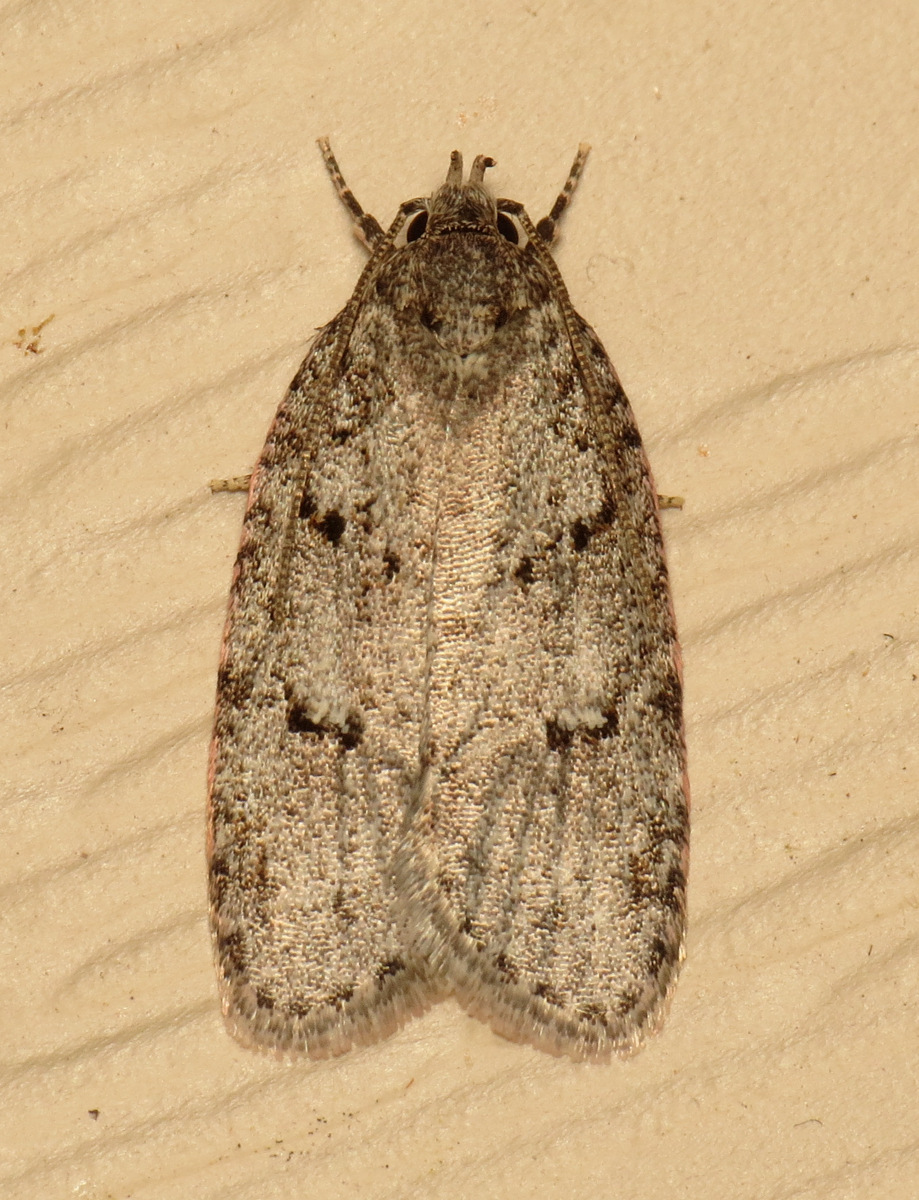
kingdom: Animalia
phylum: Arthropoda
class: Insecta
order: Lepidoptera
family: Depressariidae
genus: Bibarrambla
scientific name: Bibarrambla allenella
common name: Bog bibarrambla moth
